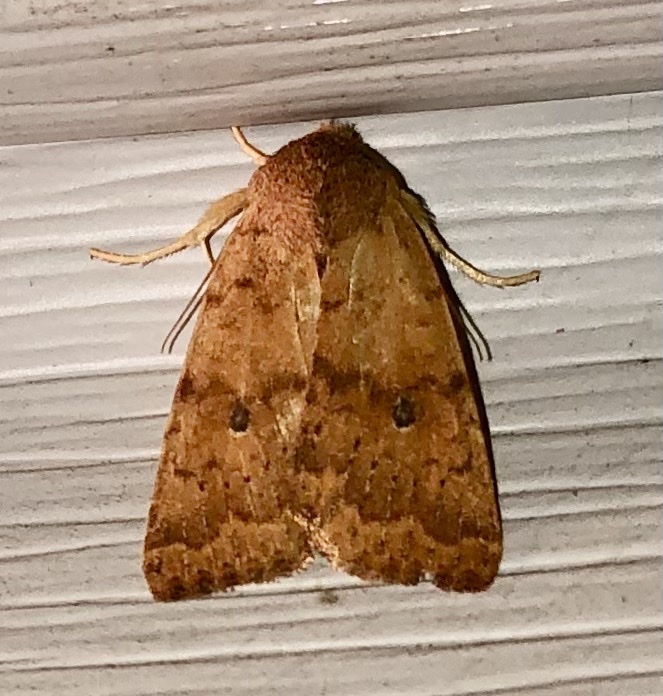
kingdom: Animalia
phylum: Arthropoda
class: Insecta
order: Lepidoptera
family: Noctuidae
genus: Agrochola
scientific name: Agrochola bicolorago
